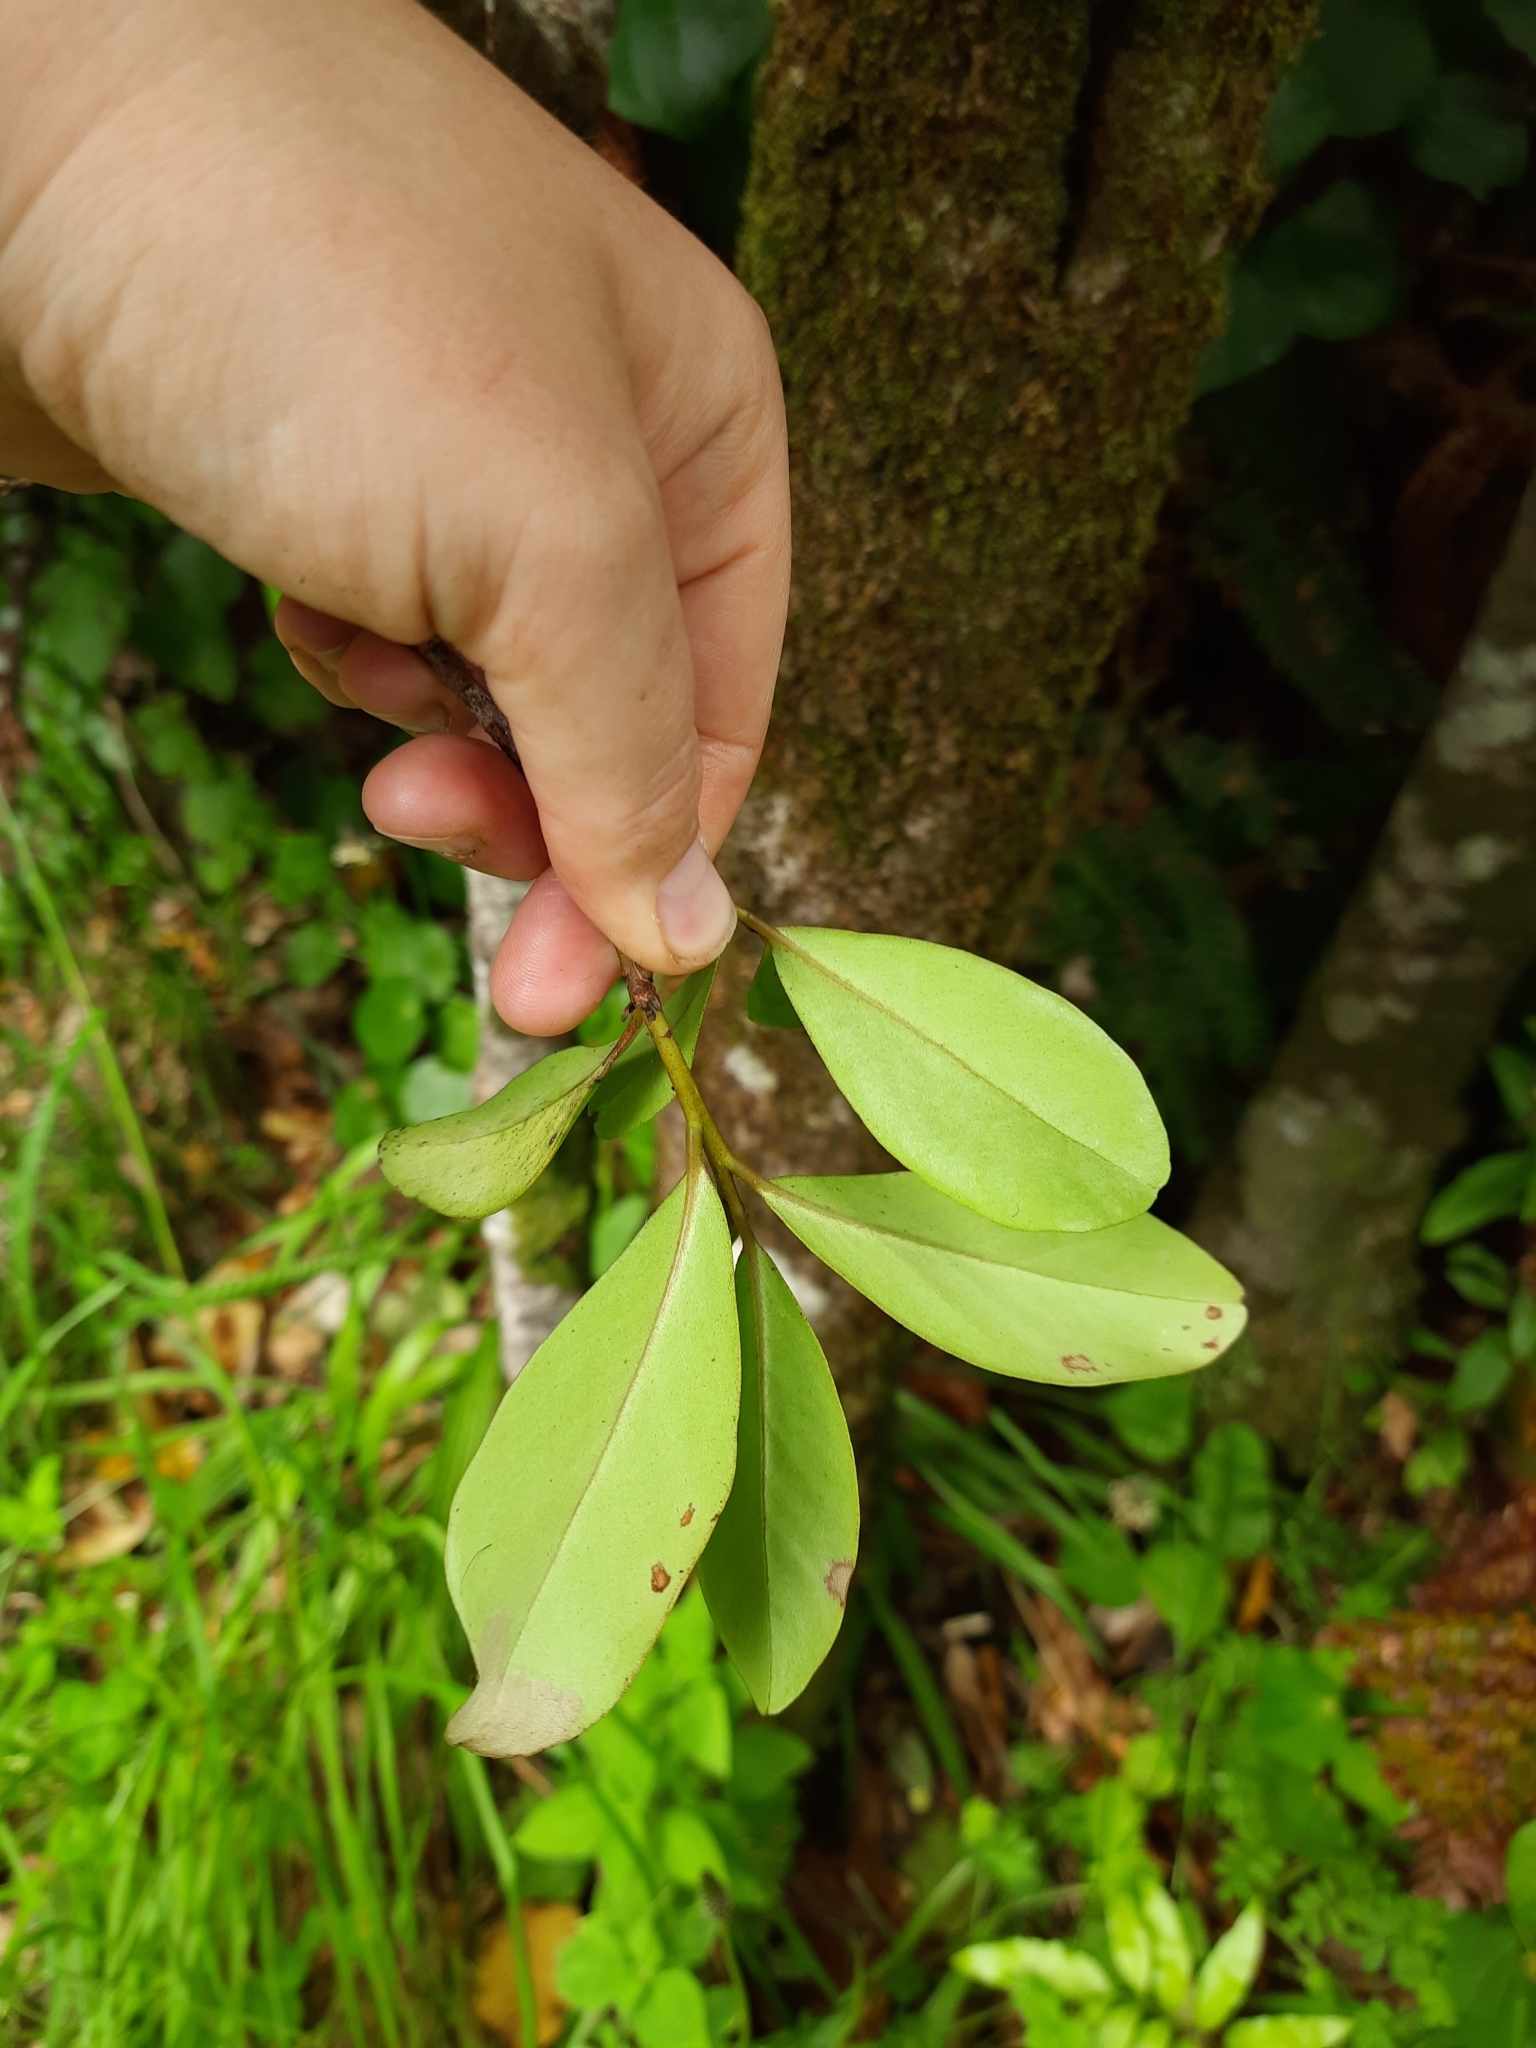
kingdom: Plantae
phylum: Tracheophyta
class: Magnoliopsida
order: Ericales
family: Primulaceae
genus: Myrsine
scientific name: Myrsine chathamica
